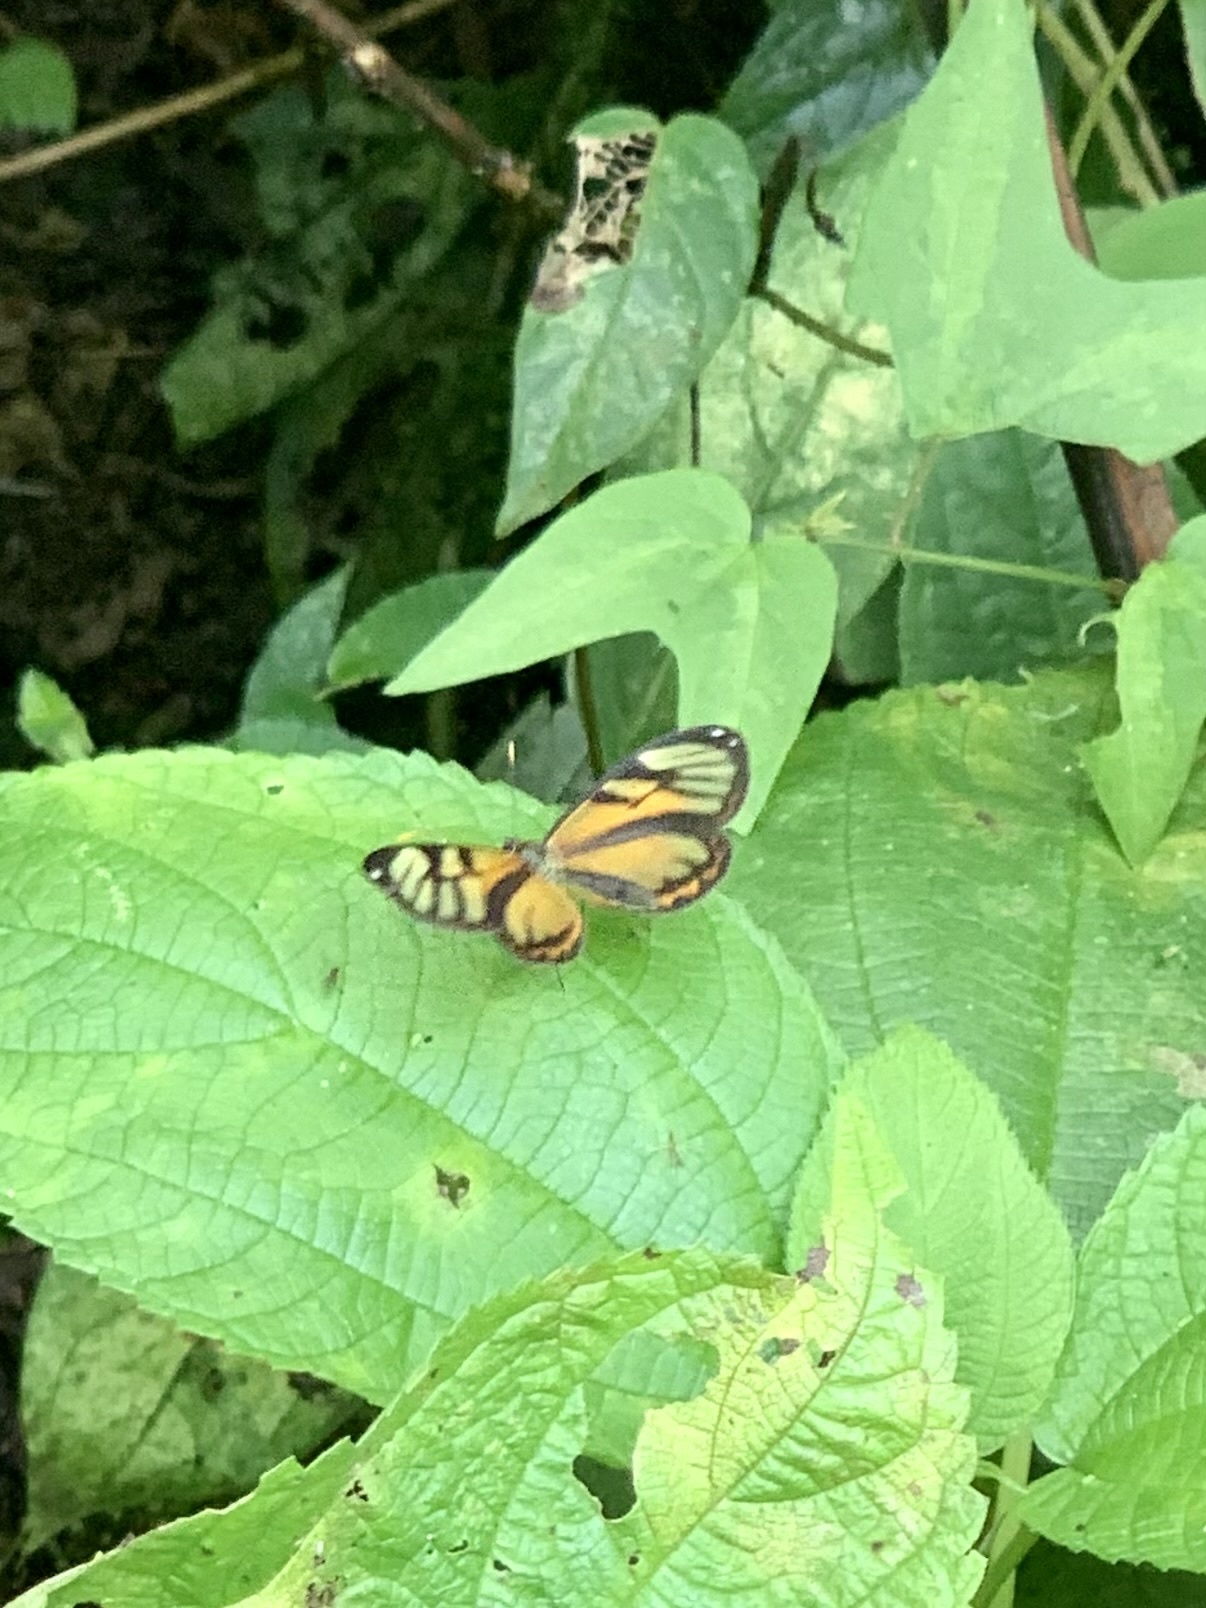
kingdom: Animalia
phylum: Arthropoda
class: Insecta
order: Lepidoptera
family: Nymphalidae
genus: Ithomia
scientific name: Ithomia iphianassa
